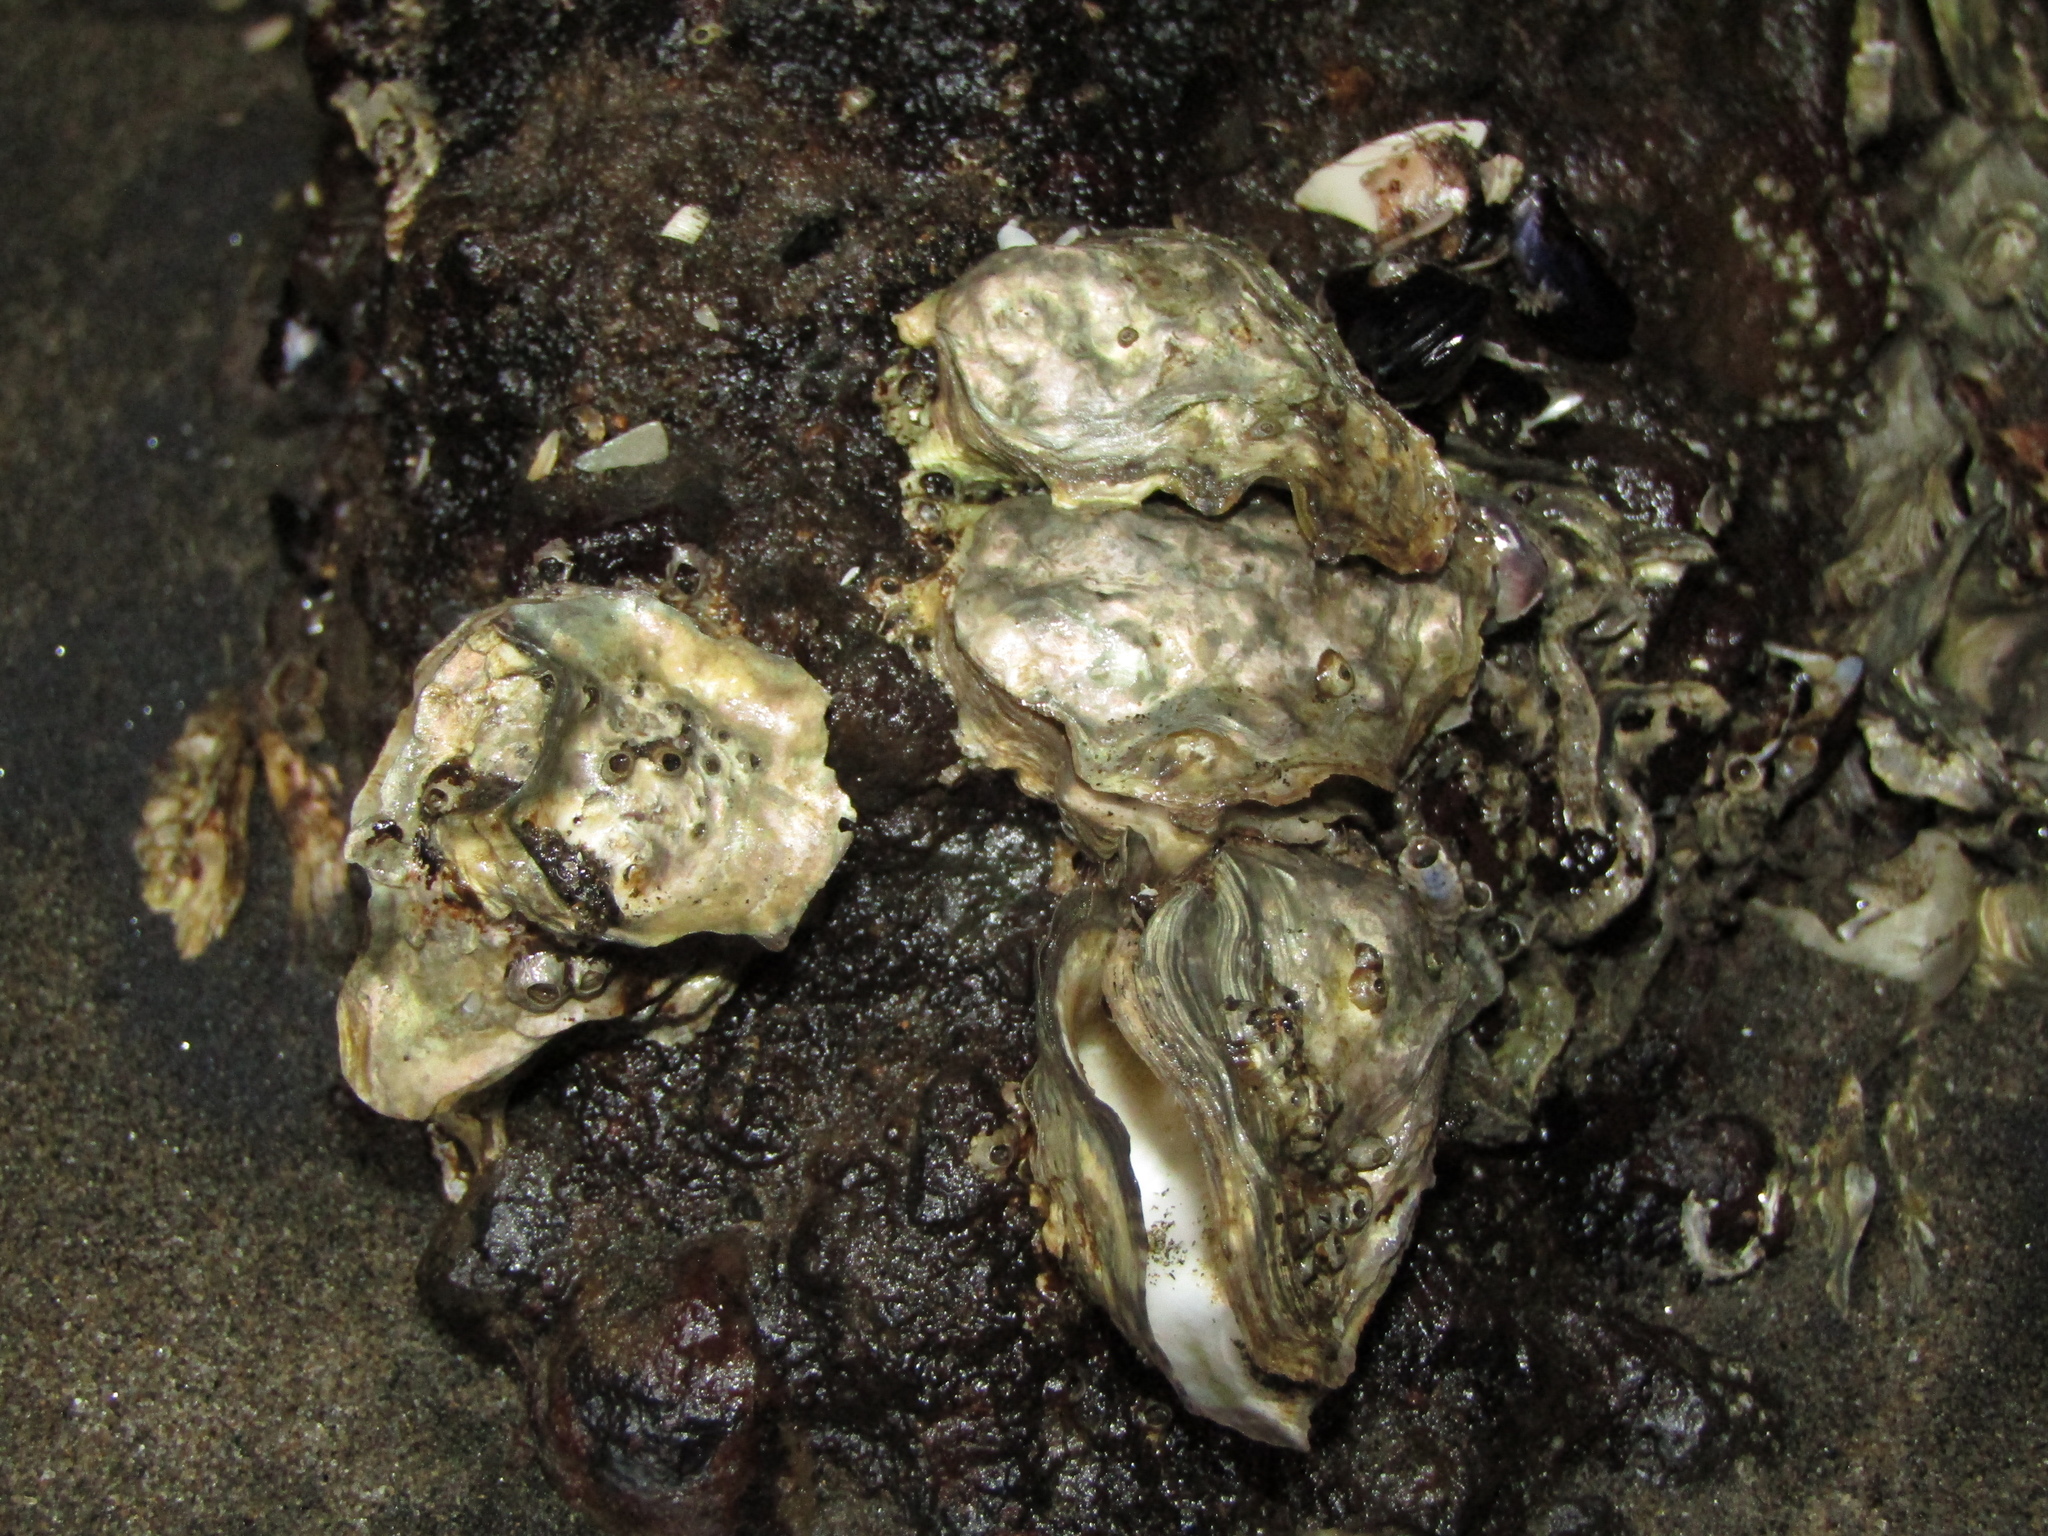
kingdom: Animalia
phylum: Mollusca
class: Bivalvia
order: Ostreida
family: Ostreidae
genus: Magallana
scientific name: Magallana gigas
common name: Pacific oyster
